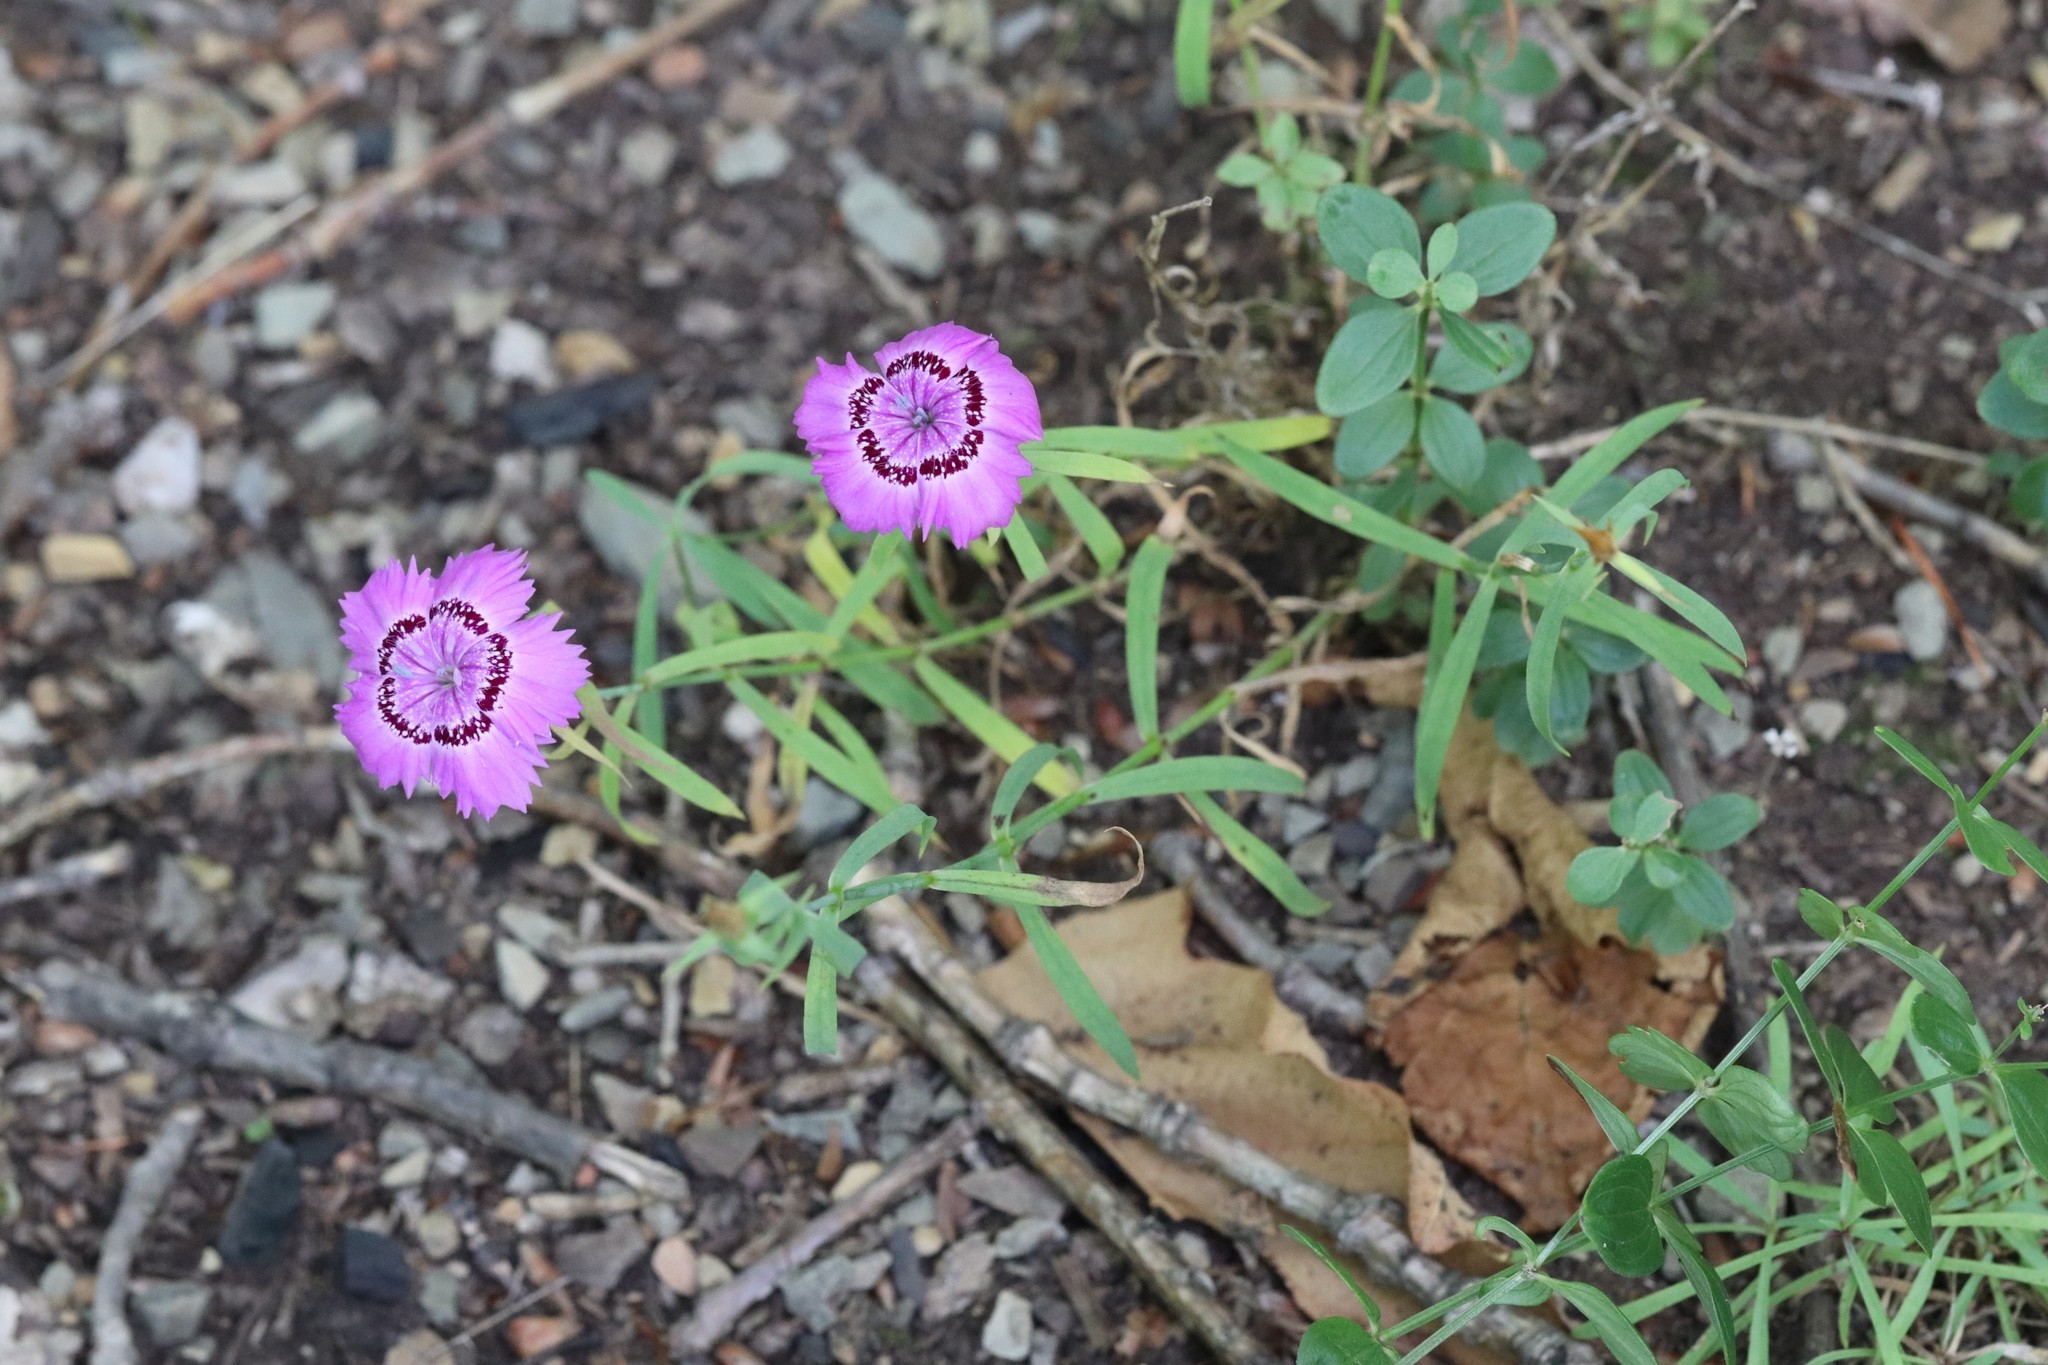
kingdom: Plantae
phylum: Tracheophyta
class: Magnoliopsida
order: Caryophyllales
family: Caryophyllaceae
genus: Dianthus
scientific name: Dianthus chinensis
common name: Rainbow pink
